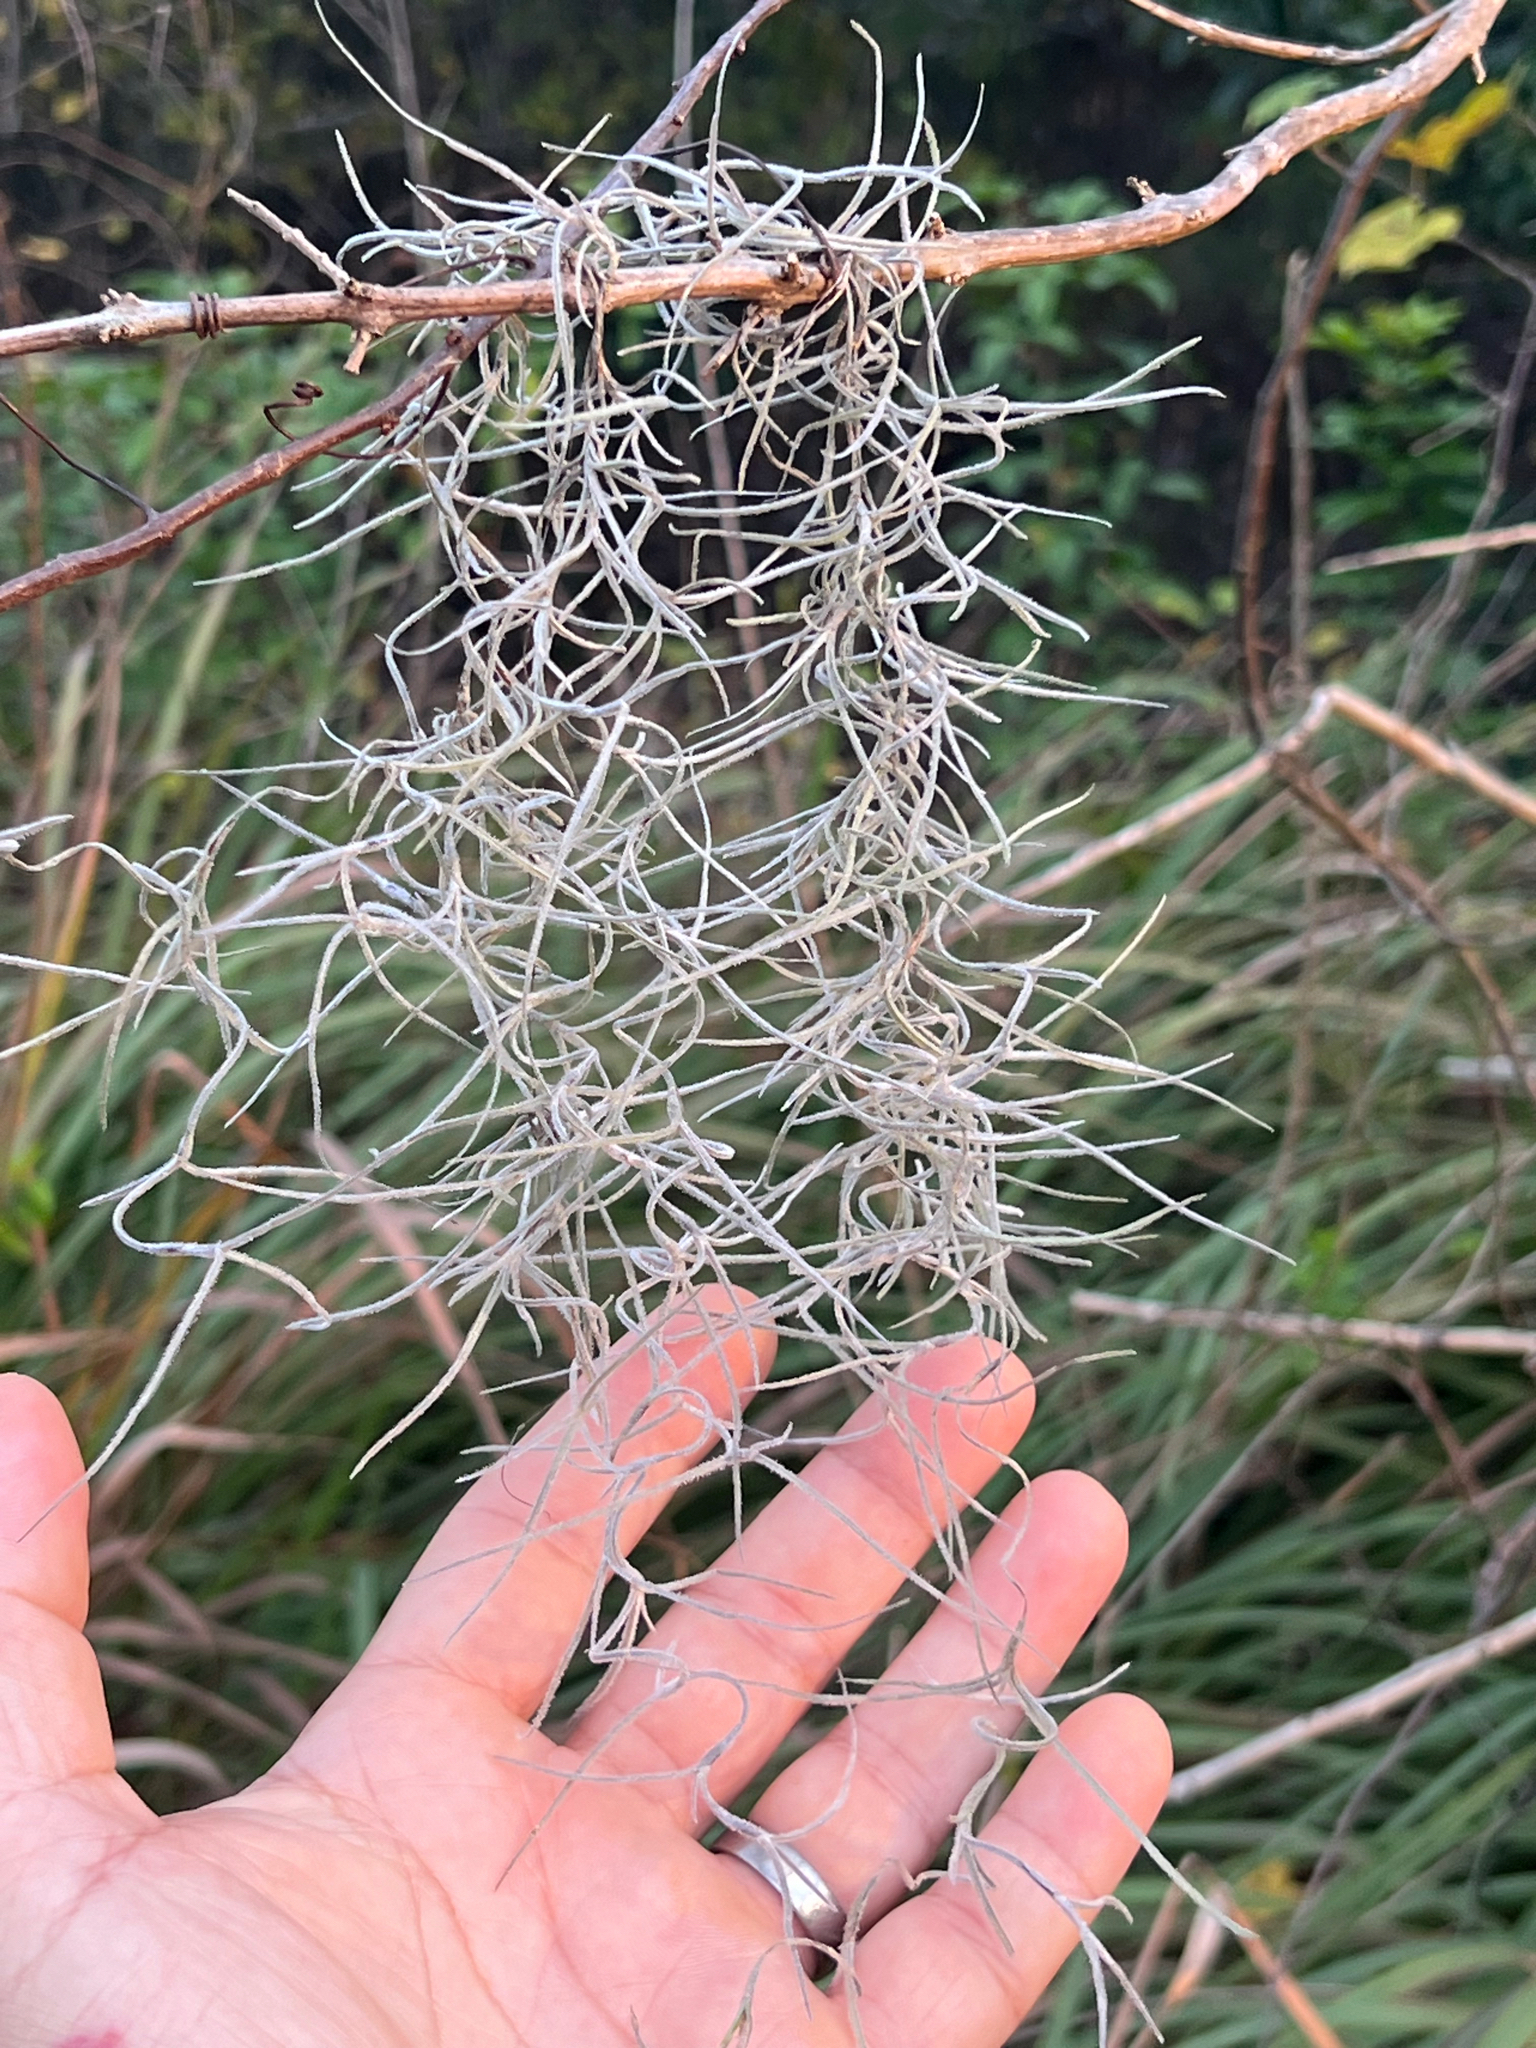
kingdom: Plantae
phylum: Tracheophyta
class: Liliopsida
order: Poales
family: Bromeliaceae
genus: Tillandsia
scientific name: Tillandsia usneoides
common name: Spanish moss
